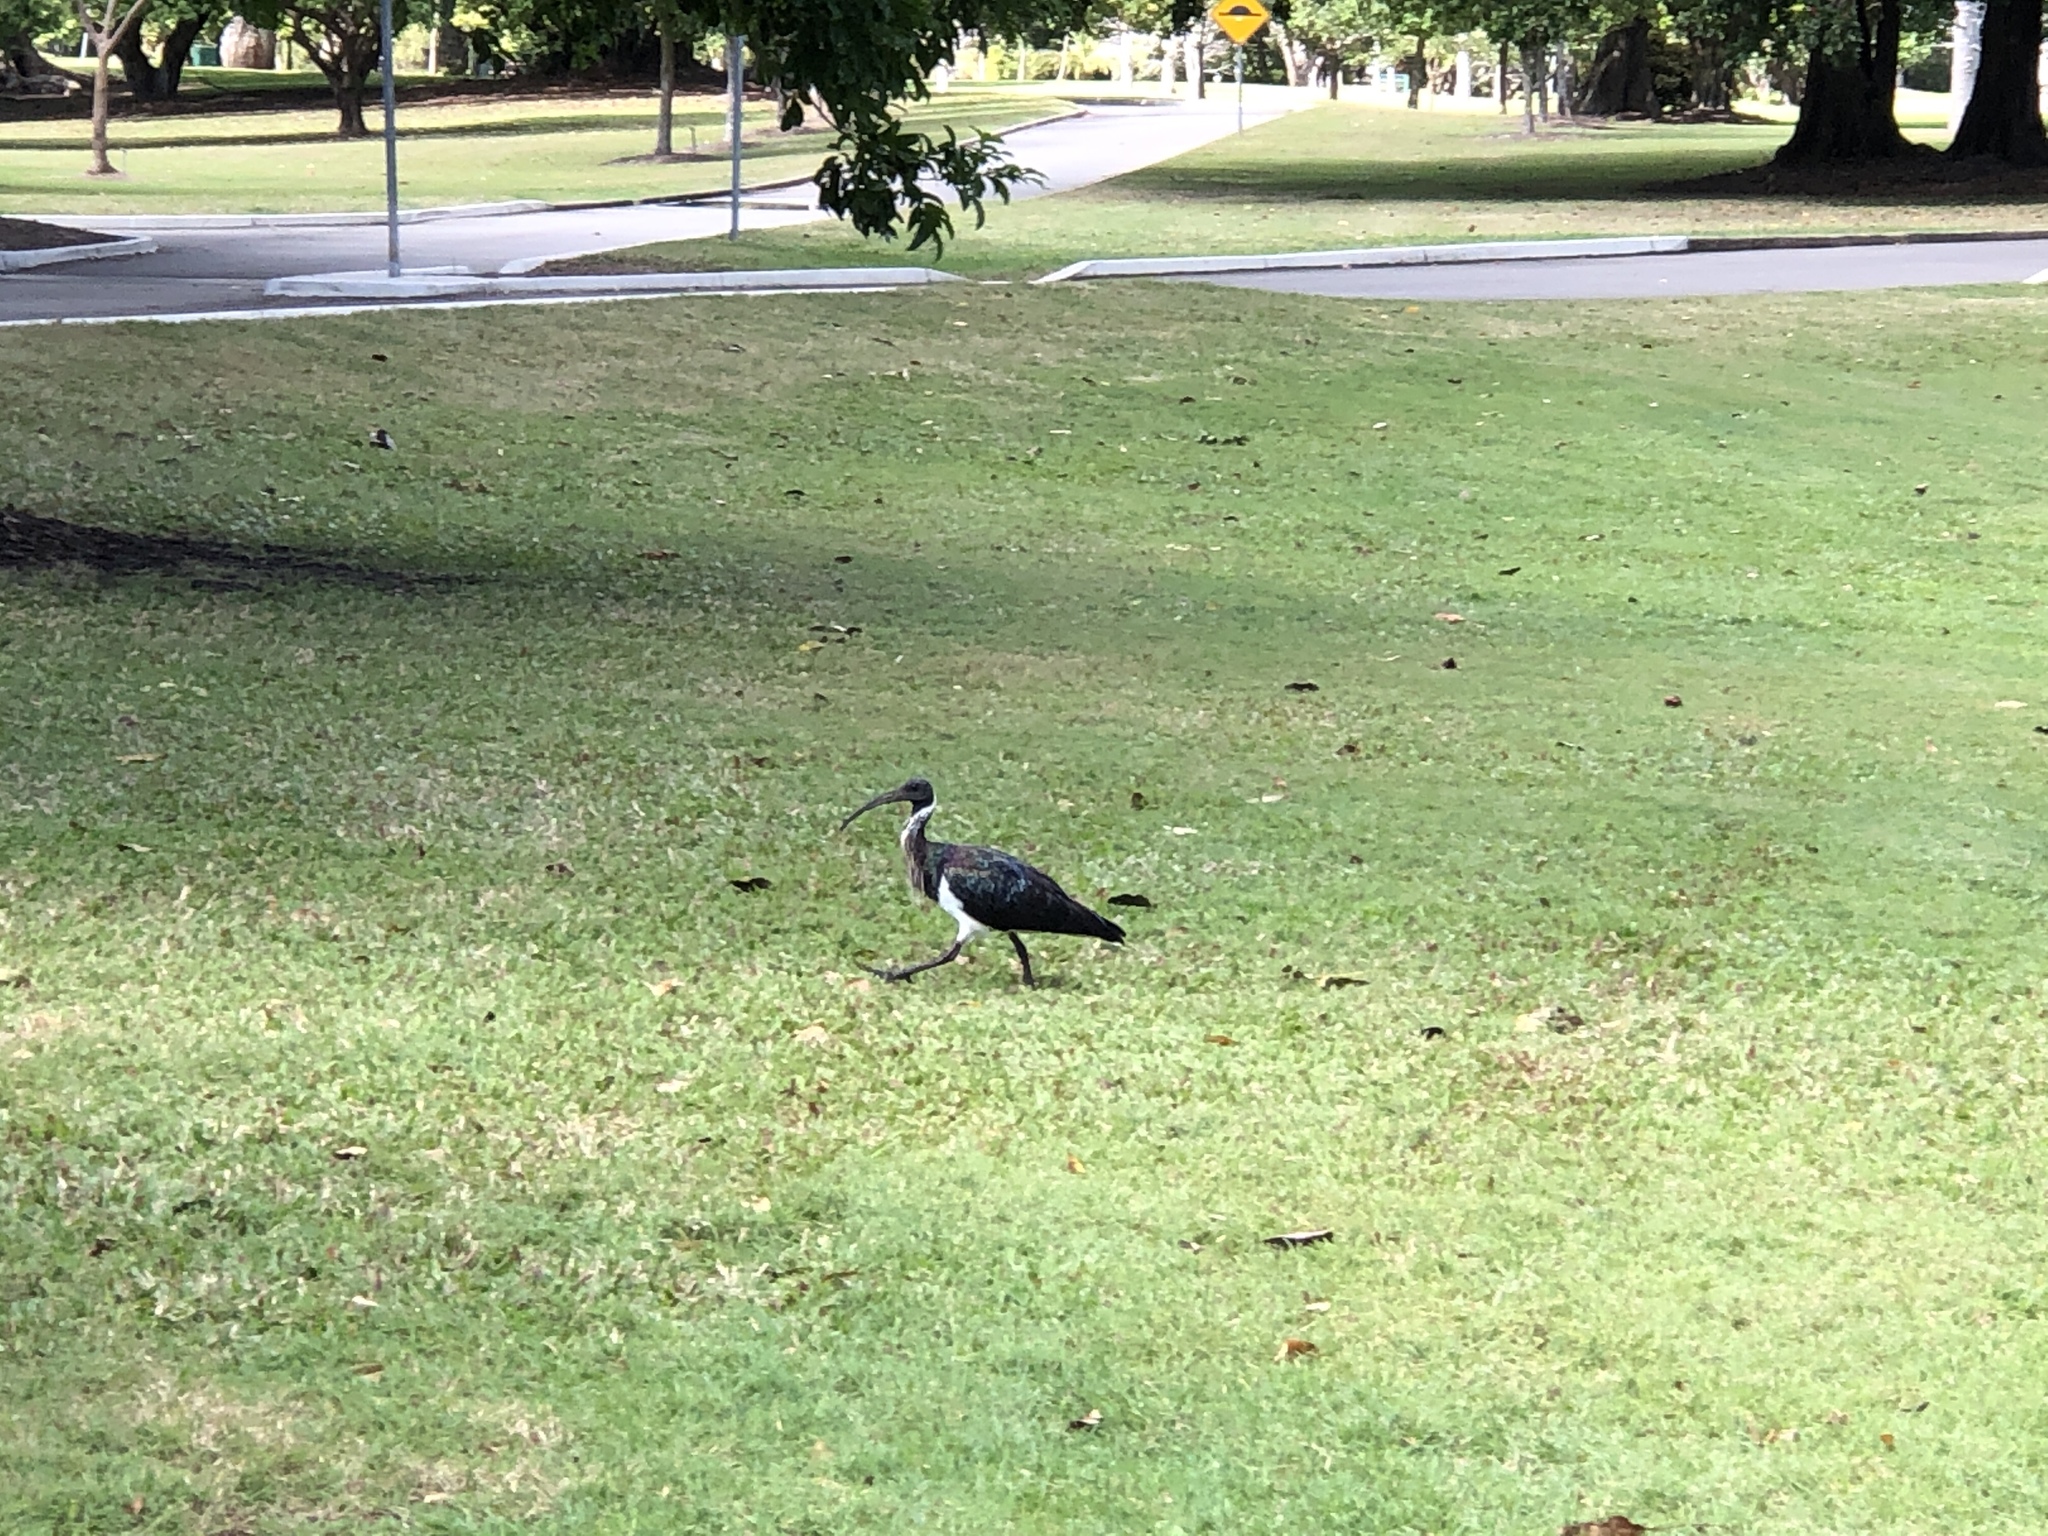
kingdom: Animalia
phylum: Chordata
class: Aves
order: Pelecaniformes
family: Threskiornithidae
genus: Threskiornis
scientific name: Threskiornis spinicollis
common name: Straw-necked ibis
